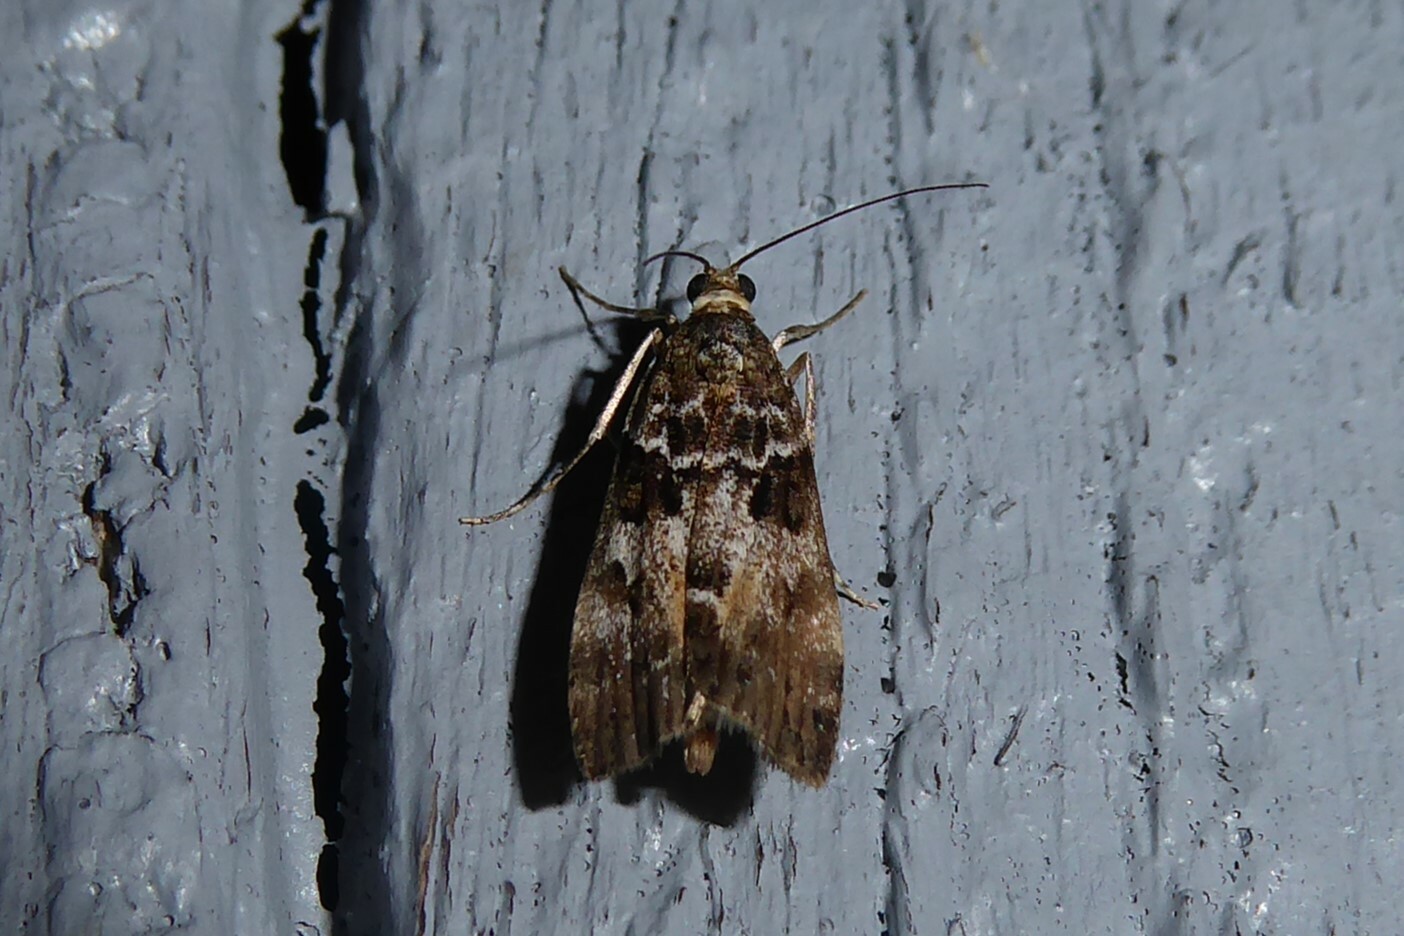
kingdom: Animalia
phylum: Arthropoda
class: Insecta
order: Lepidoptera
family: Crambidae
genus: Eudonia
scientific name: Eudonia submarginalis
